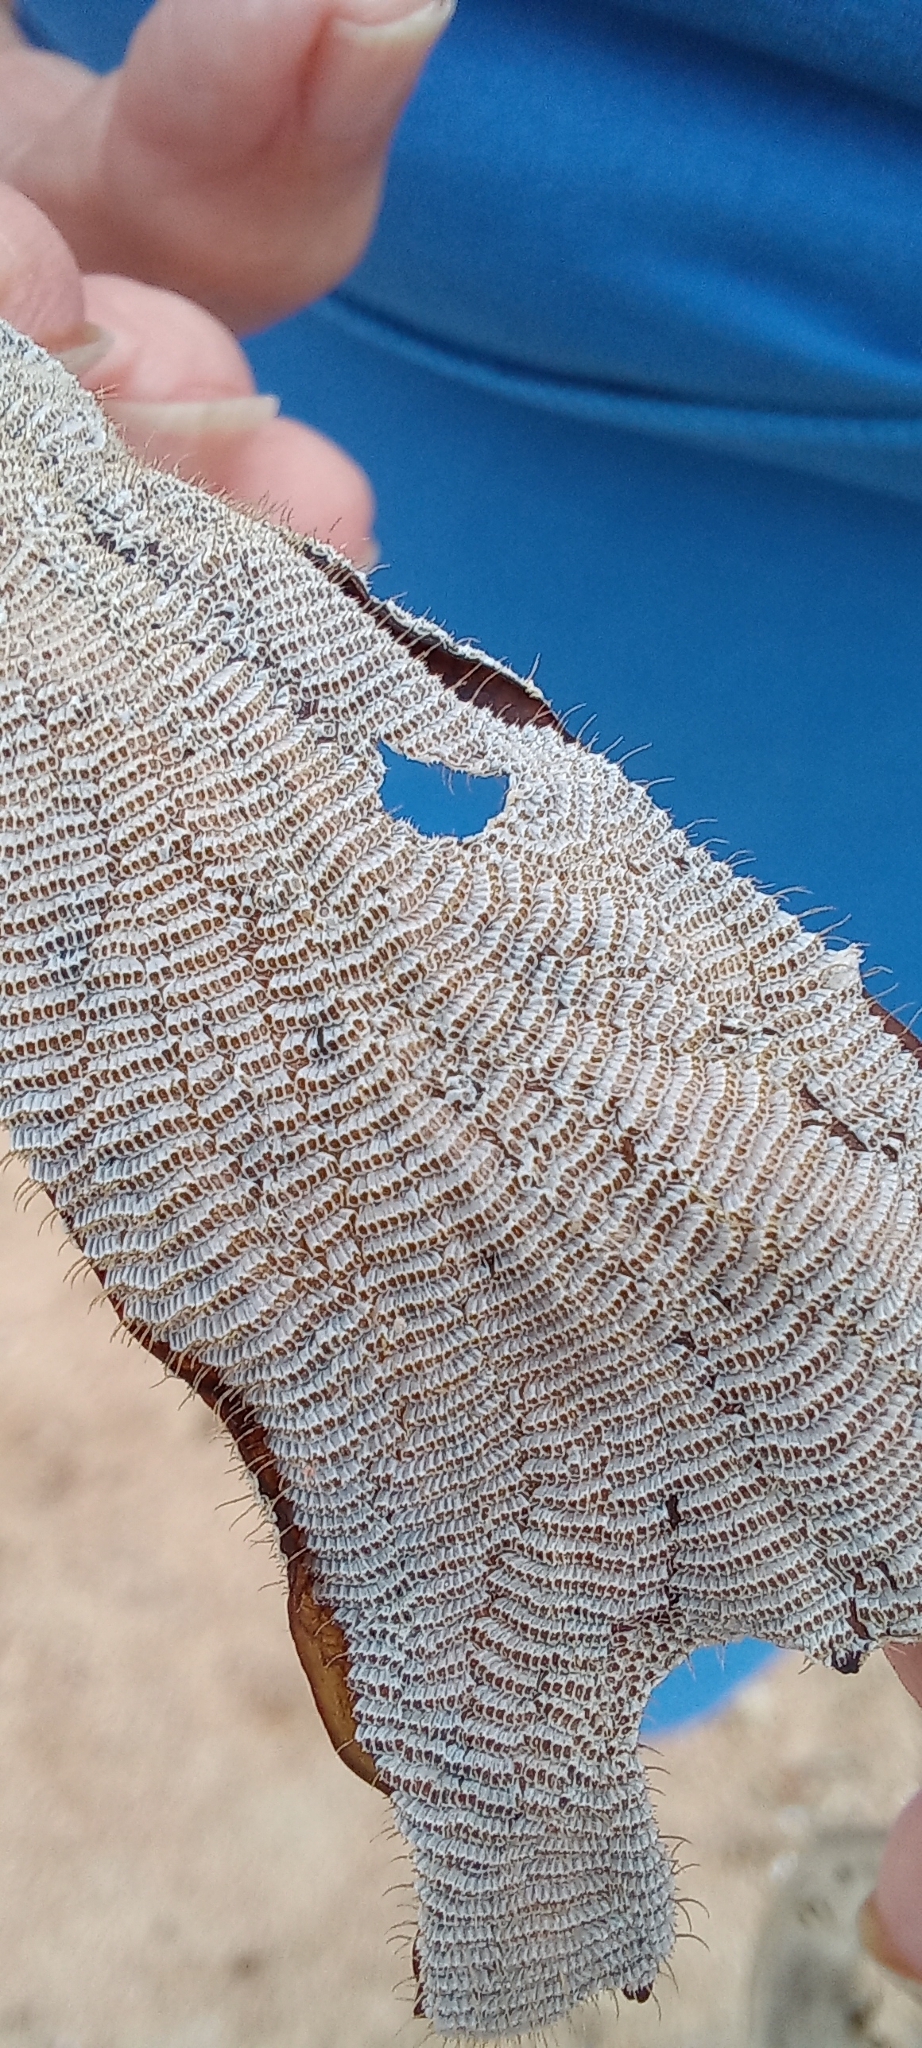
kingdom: Animalia
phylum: Bryozoa
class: Gymnolaemata
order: Cheilostomatida
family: Electridae
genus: Electra
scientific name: Electra pilosa
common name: Hairy sea-mat
